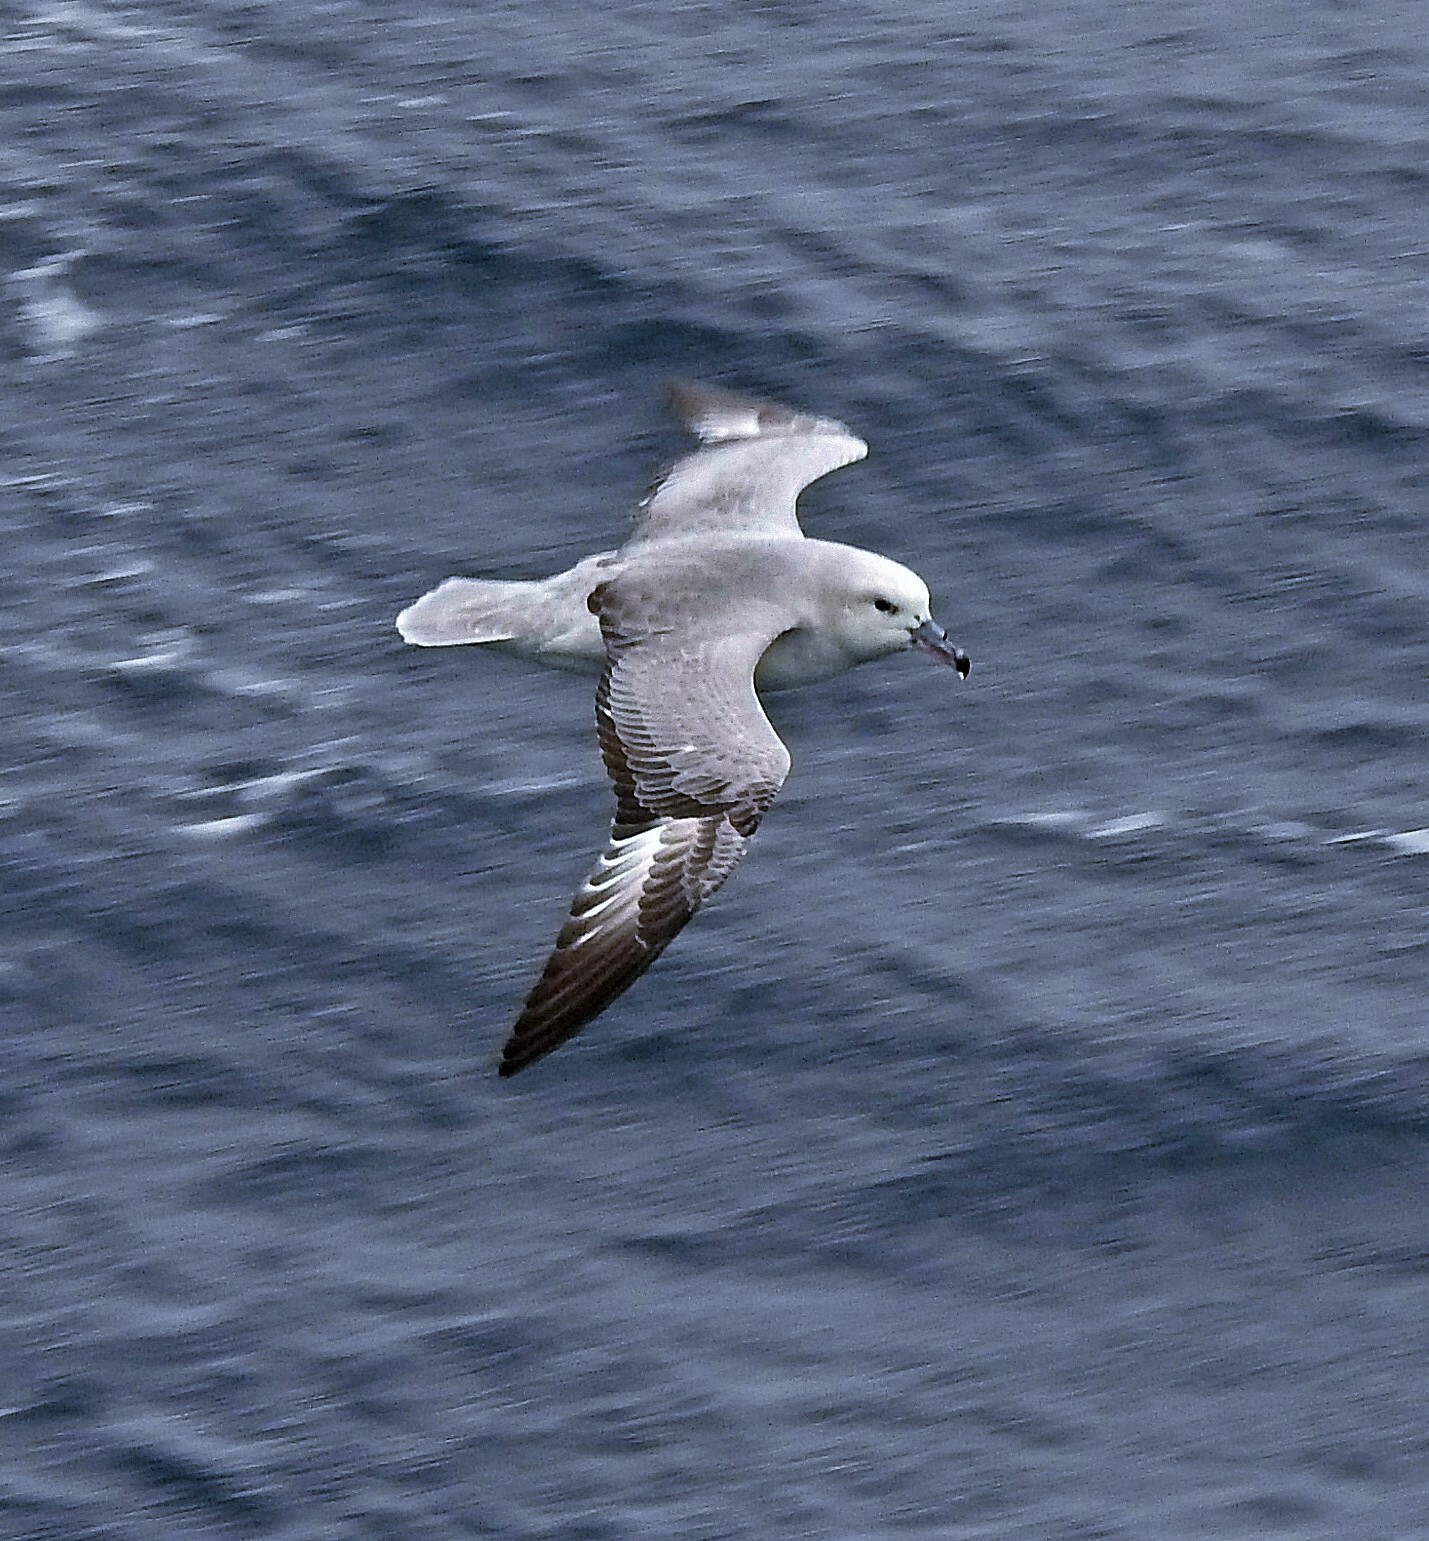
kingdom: Animalia
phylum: Chordata
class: Aves
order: Procellariiformes
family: Procellariidae
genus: Fulmarus
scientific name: Fulmarus glacialoides
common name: Southern fulmar
